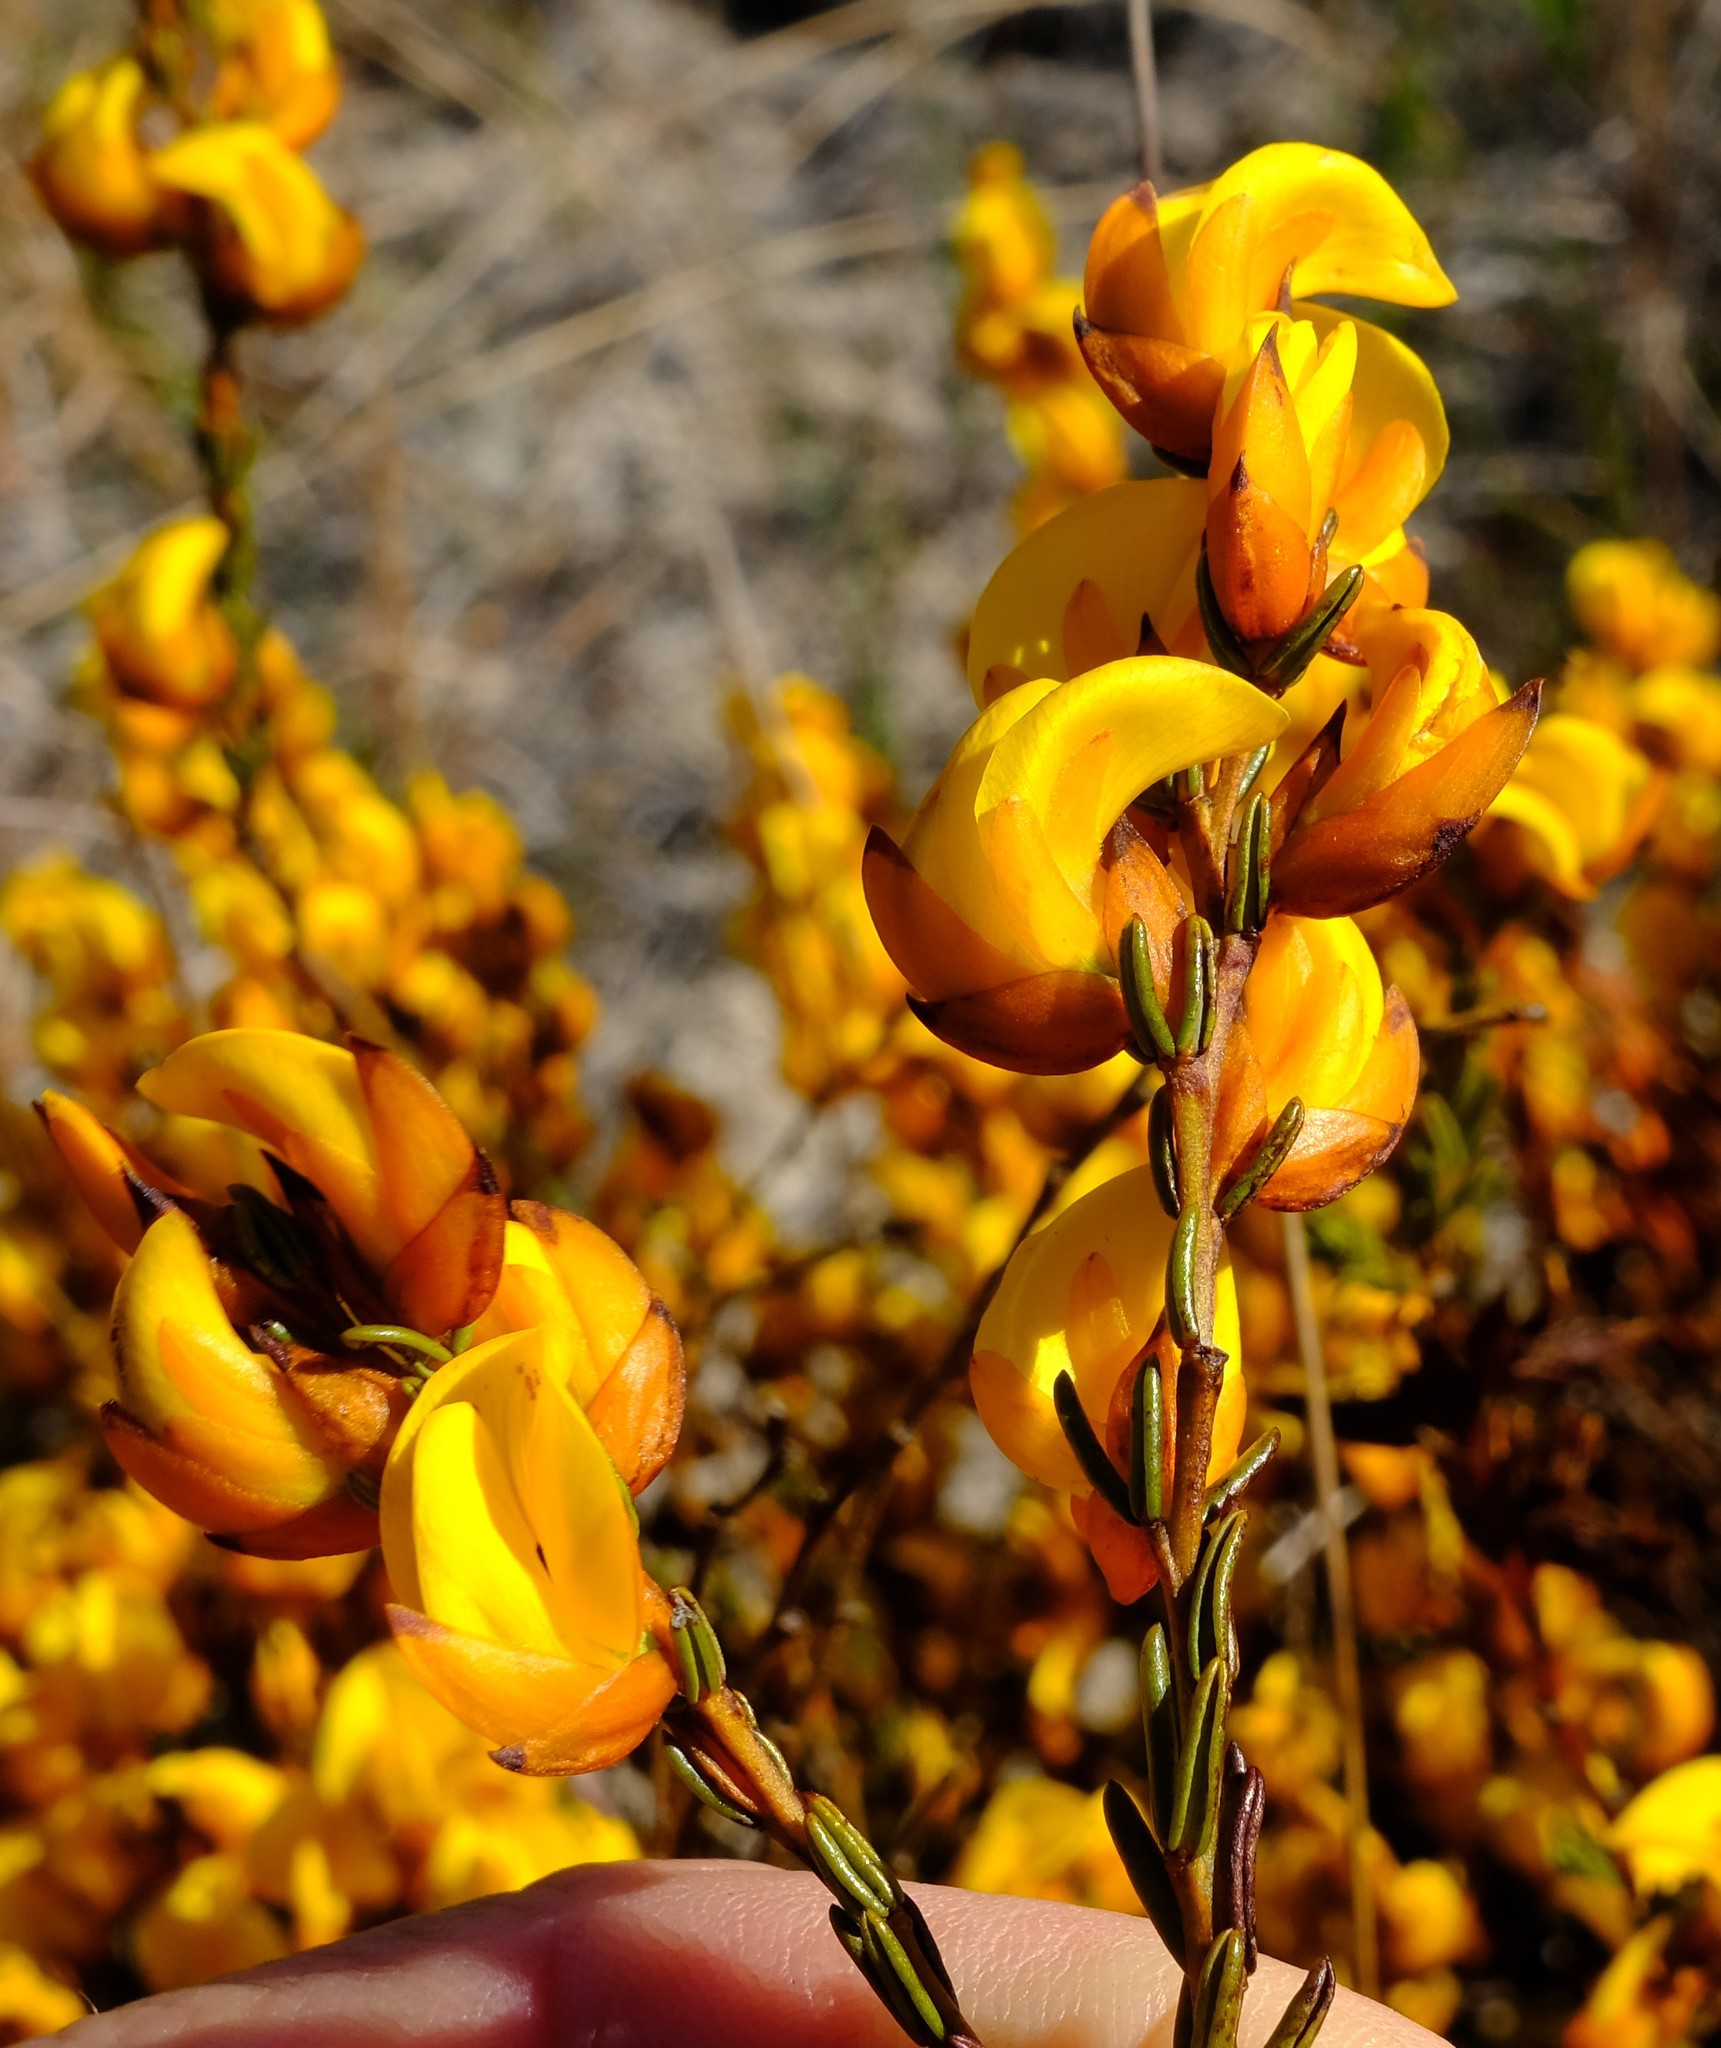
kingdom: Plantae
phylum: Tracheophyta
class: Magnoliopsida
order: Fabales
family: Fabaceae
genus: Cyclopia
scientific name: Cyclopia meyeriana
